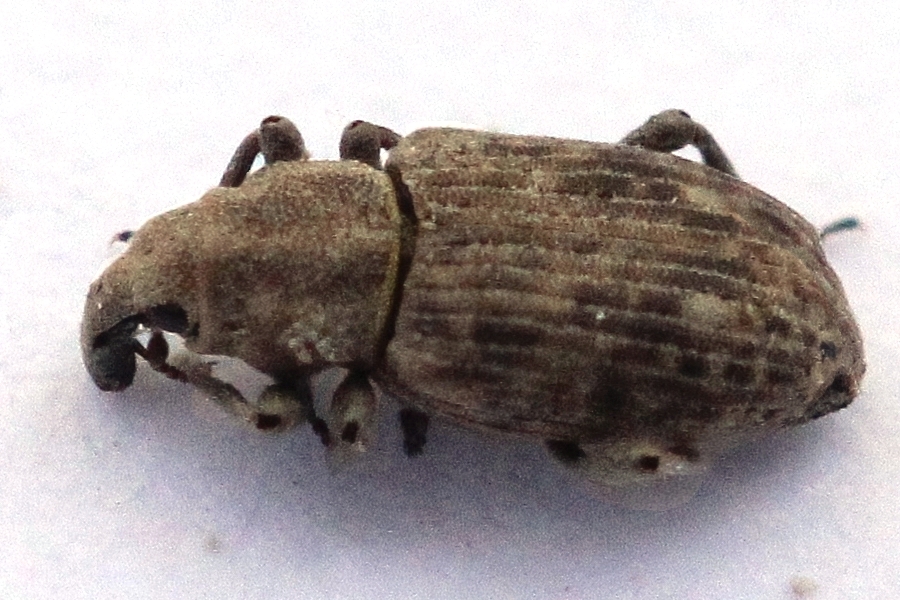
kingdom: Animalia
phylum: Arthropoda
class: Insecta
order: Coleoptera
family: Curculionidae
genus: Bagous
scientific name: Bagous uralensis
